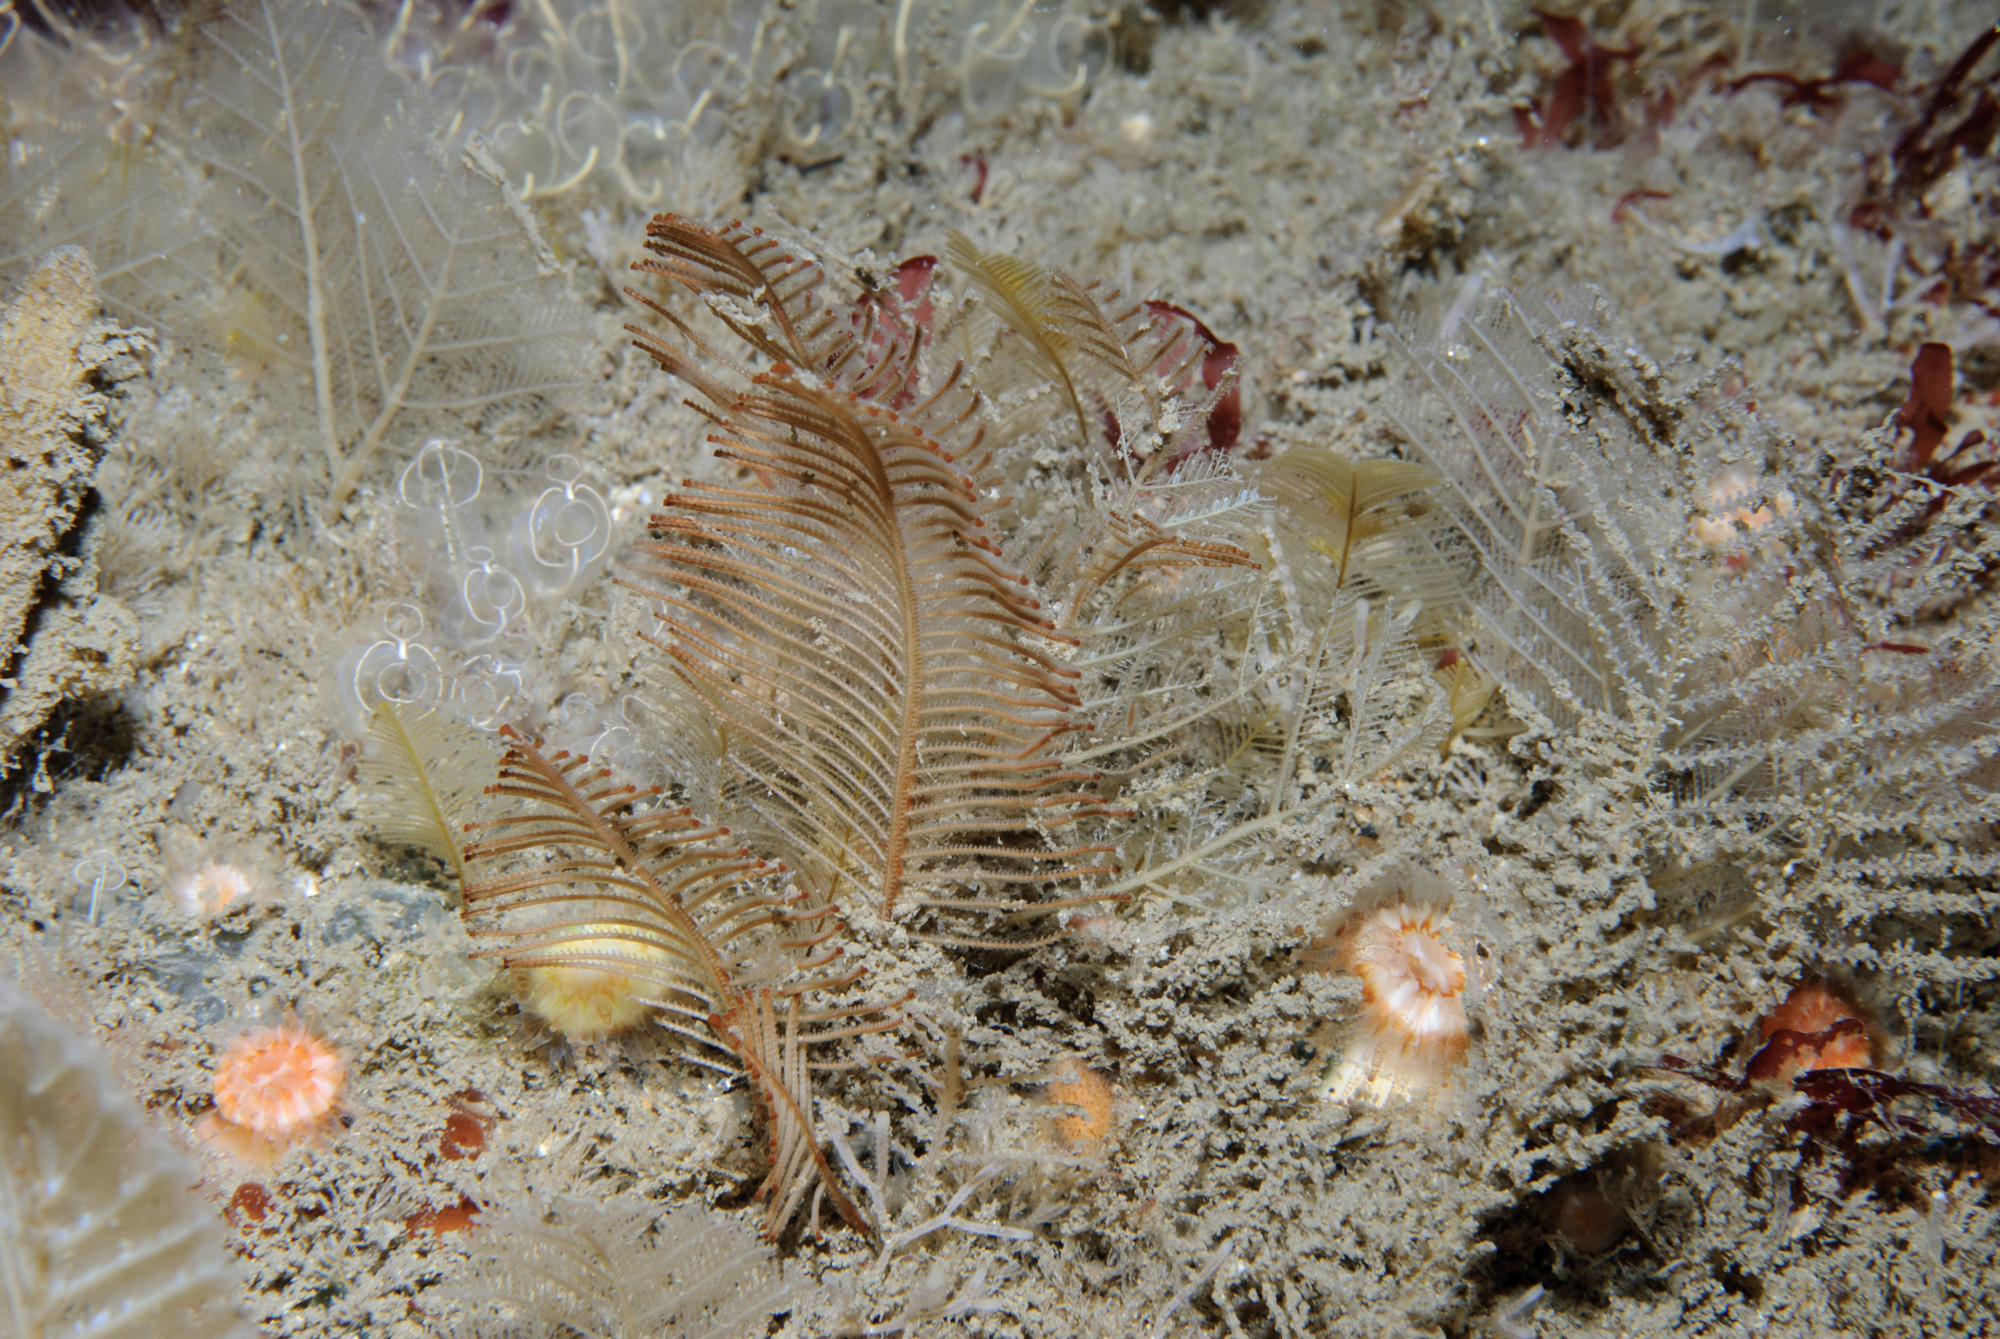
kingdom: Animalia
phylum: Cnidaria
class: Hydrozoa
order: Leptothecata
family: Sertulariidae
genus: Diphasia
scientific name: Diphasia alata
